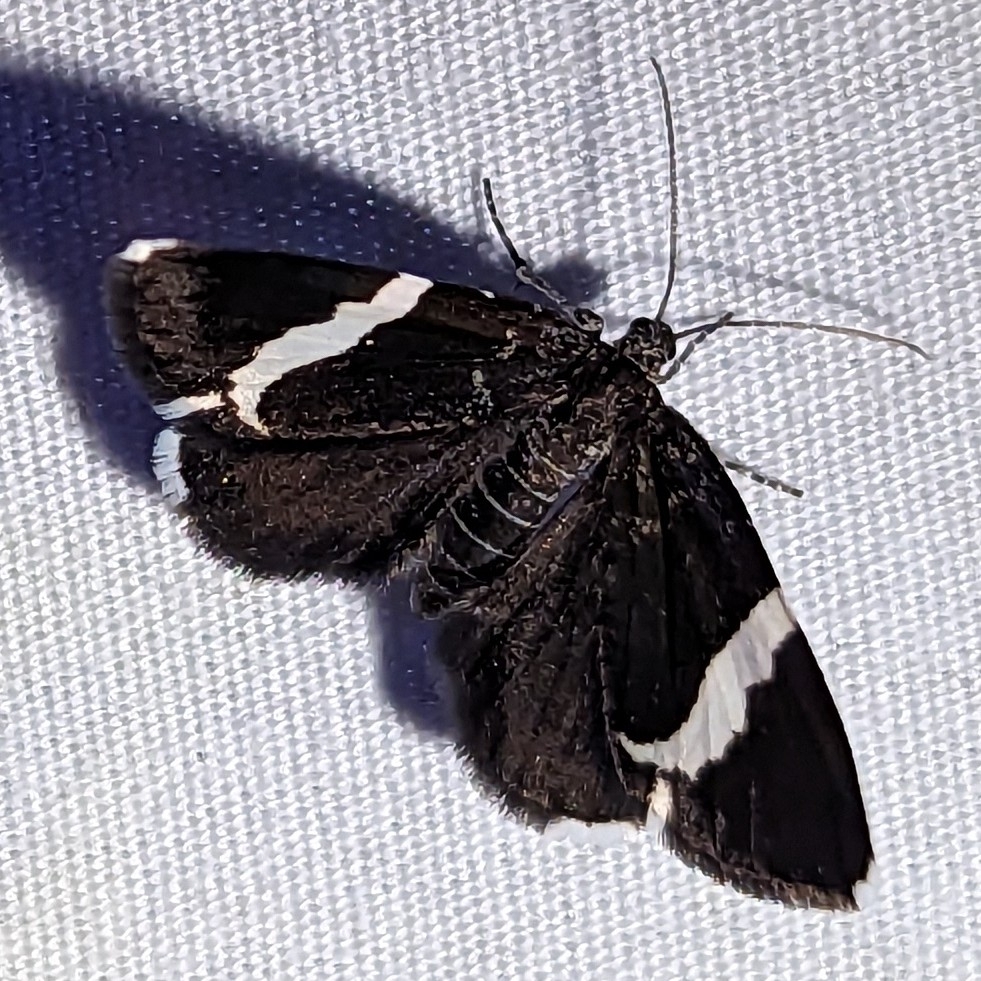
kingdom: Animalia
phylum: Arthropoda
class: Insecta
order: Lepidoptera
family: Geometridae
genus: Trichodezia
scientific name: Trichodezia albovittata
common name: White striped black
